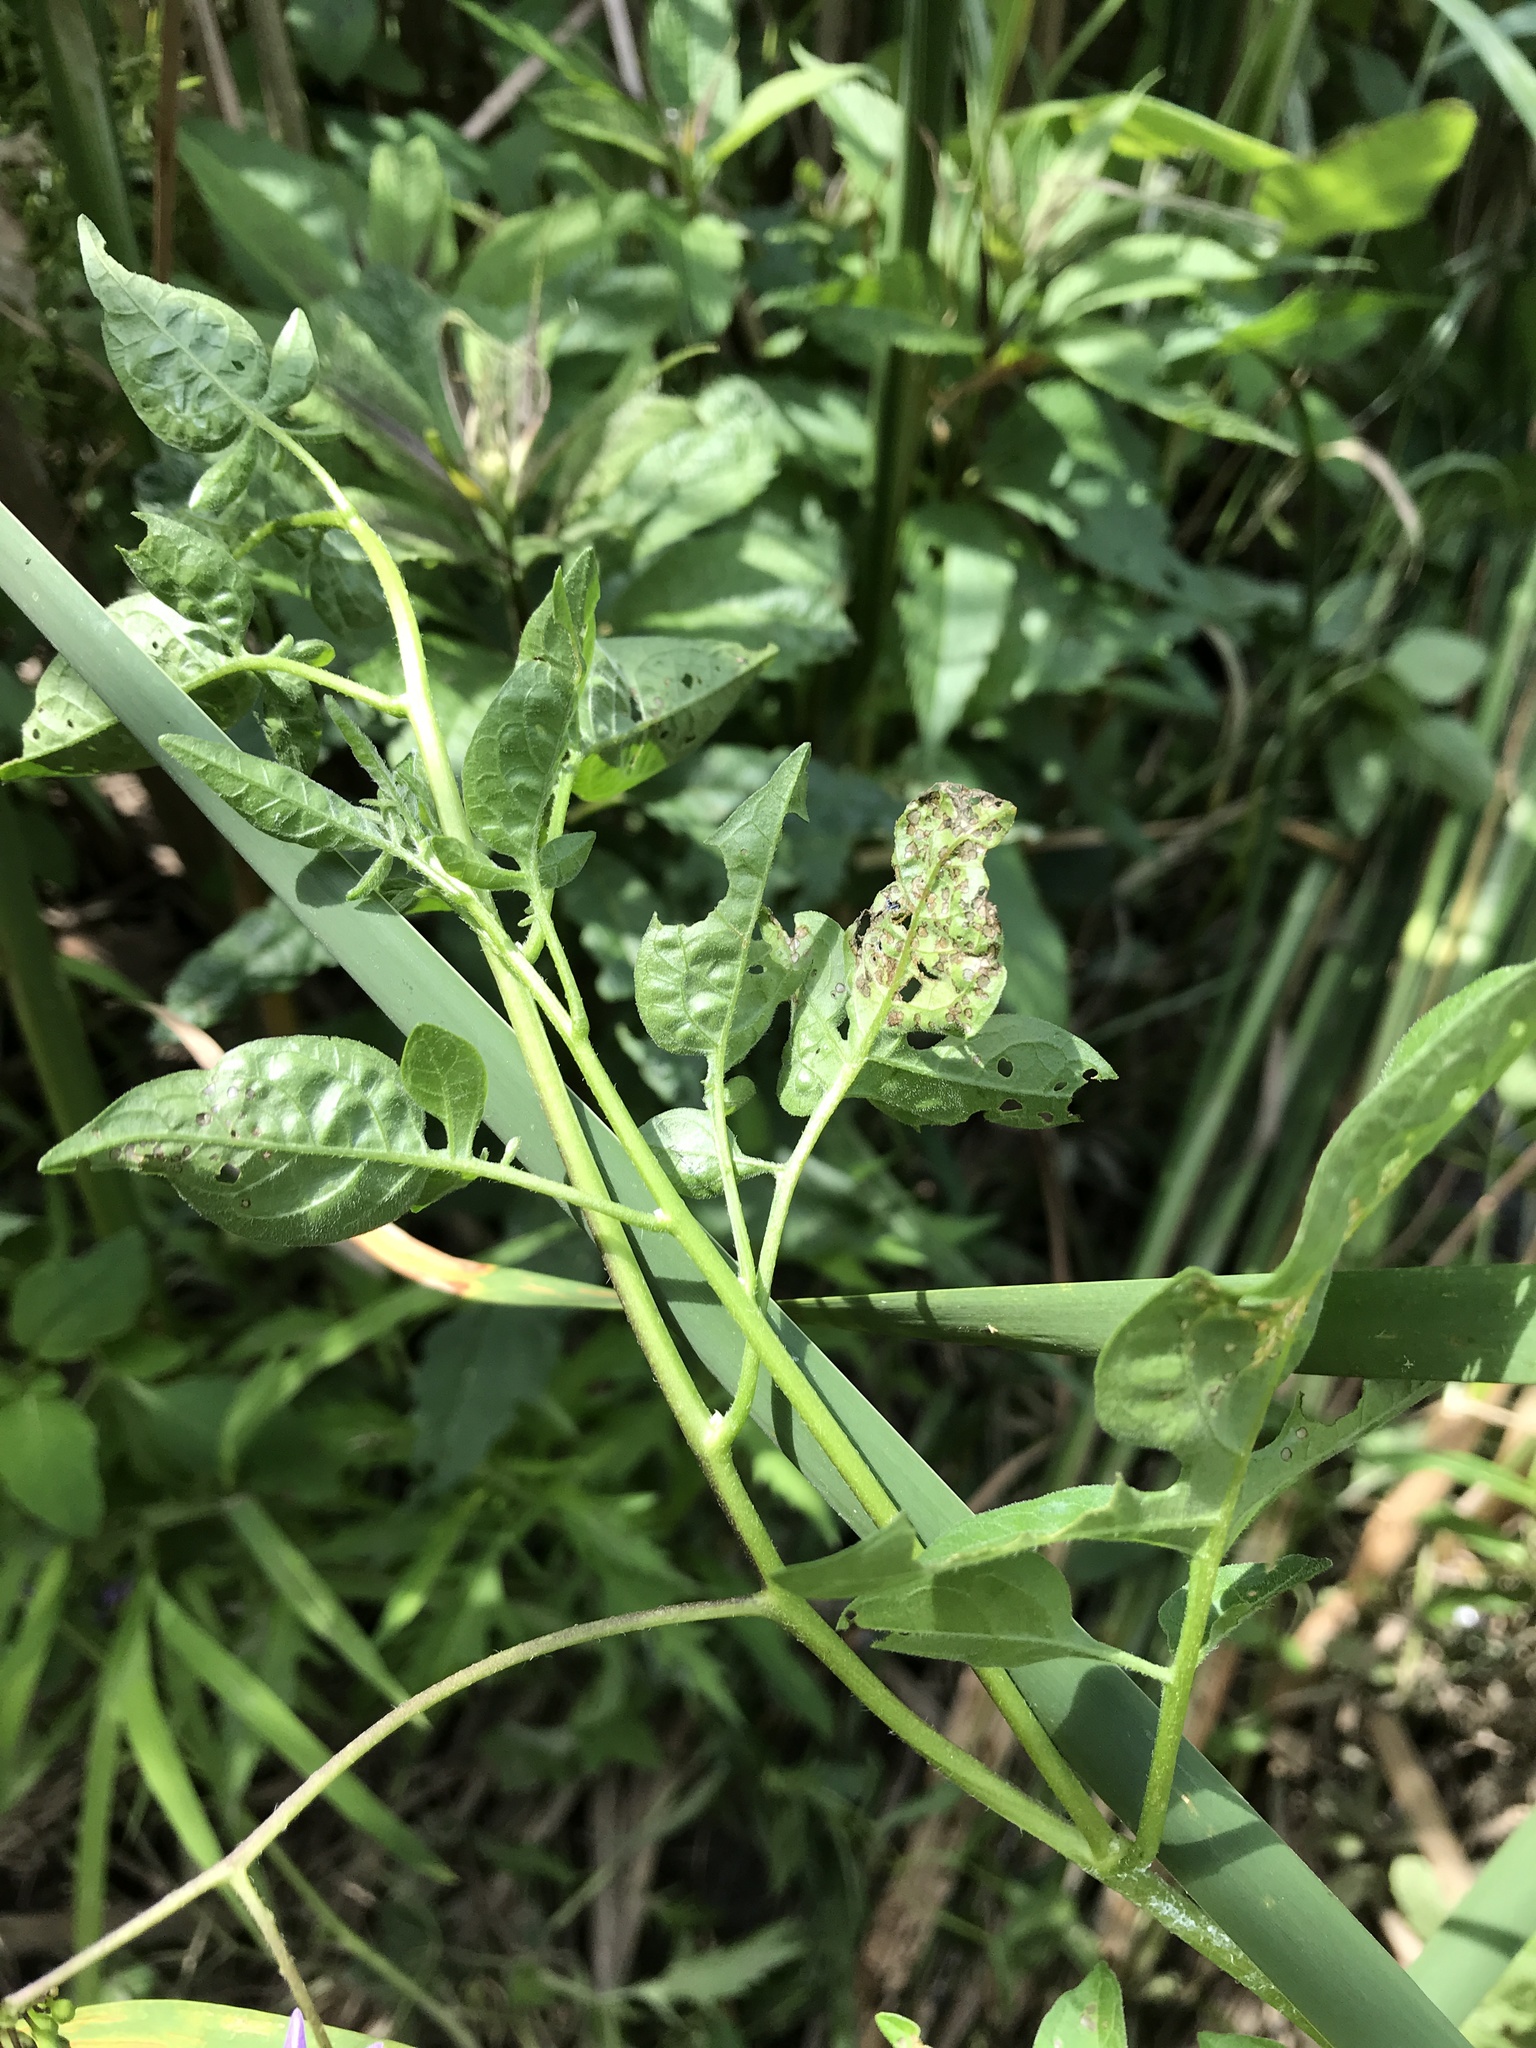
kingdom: Plantae
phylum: Tracheophyta
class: Magnoliopsida
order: Solanales
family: Solanaceae
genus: Solanum
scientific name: Solanum dulcamara
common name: Climbing nightshade
